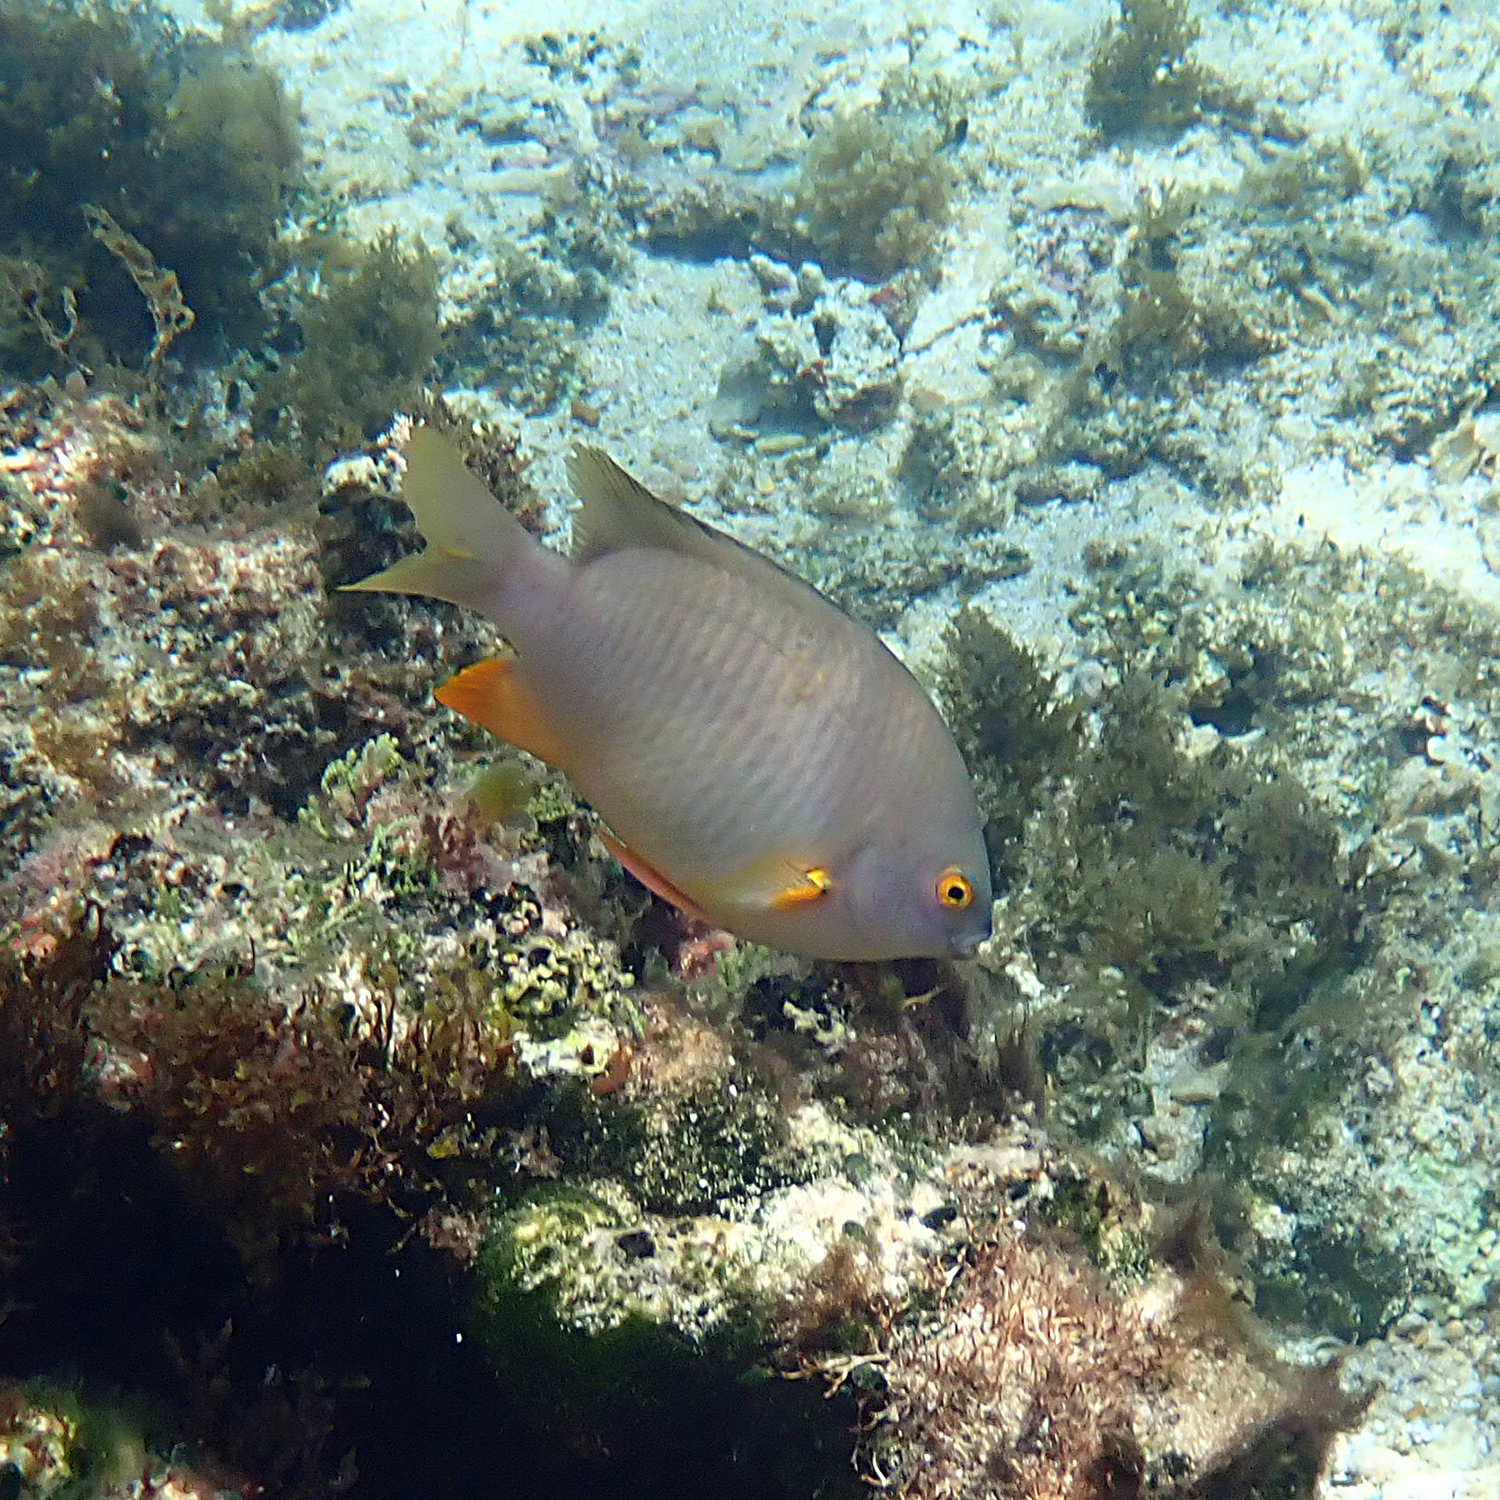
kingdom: Animalia
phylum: Chordata
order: Perciformes
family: Pomacentridae
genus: Stegastes
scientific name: Stegastes gascoynei
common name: Coral sea gregory
